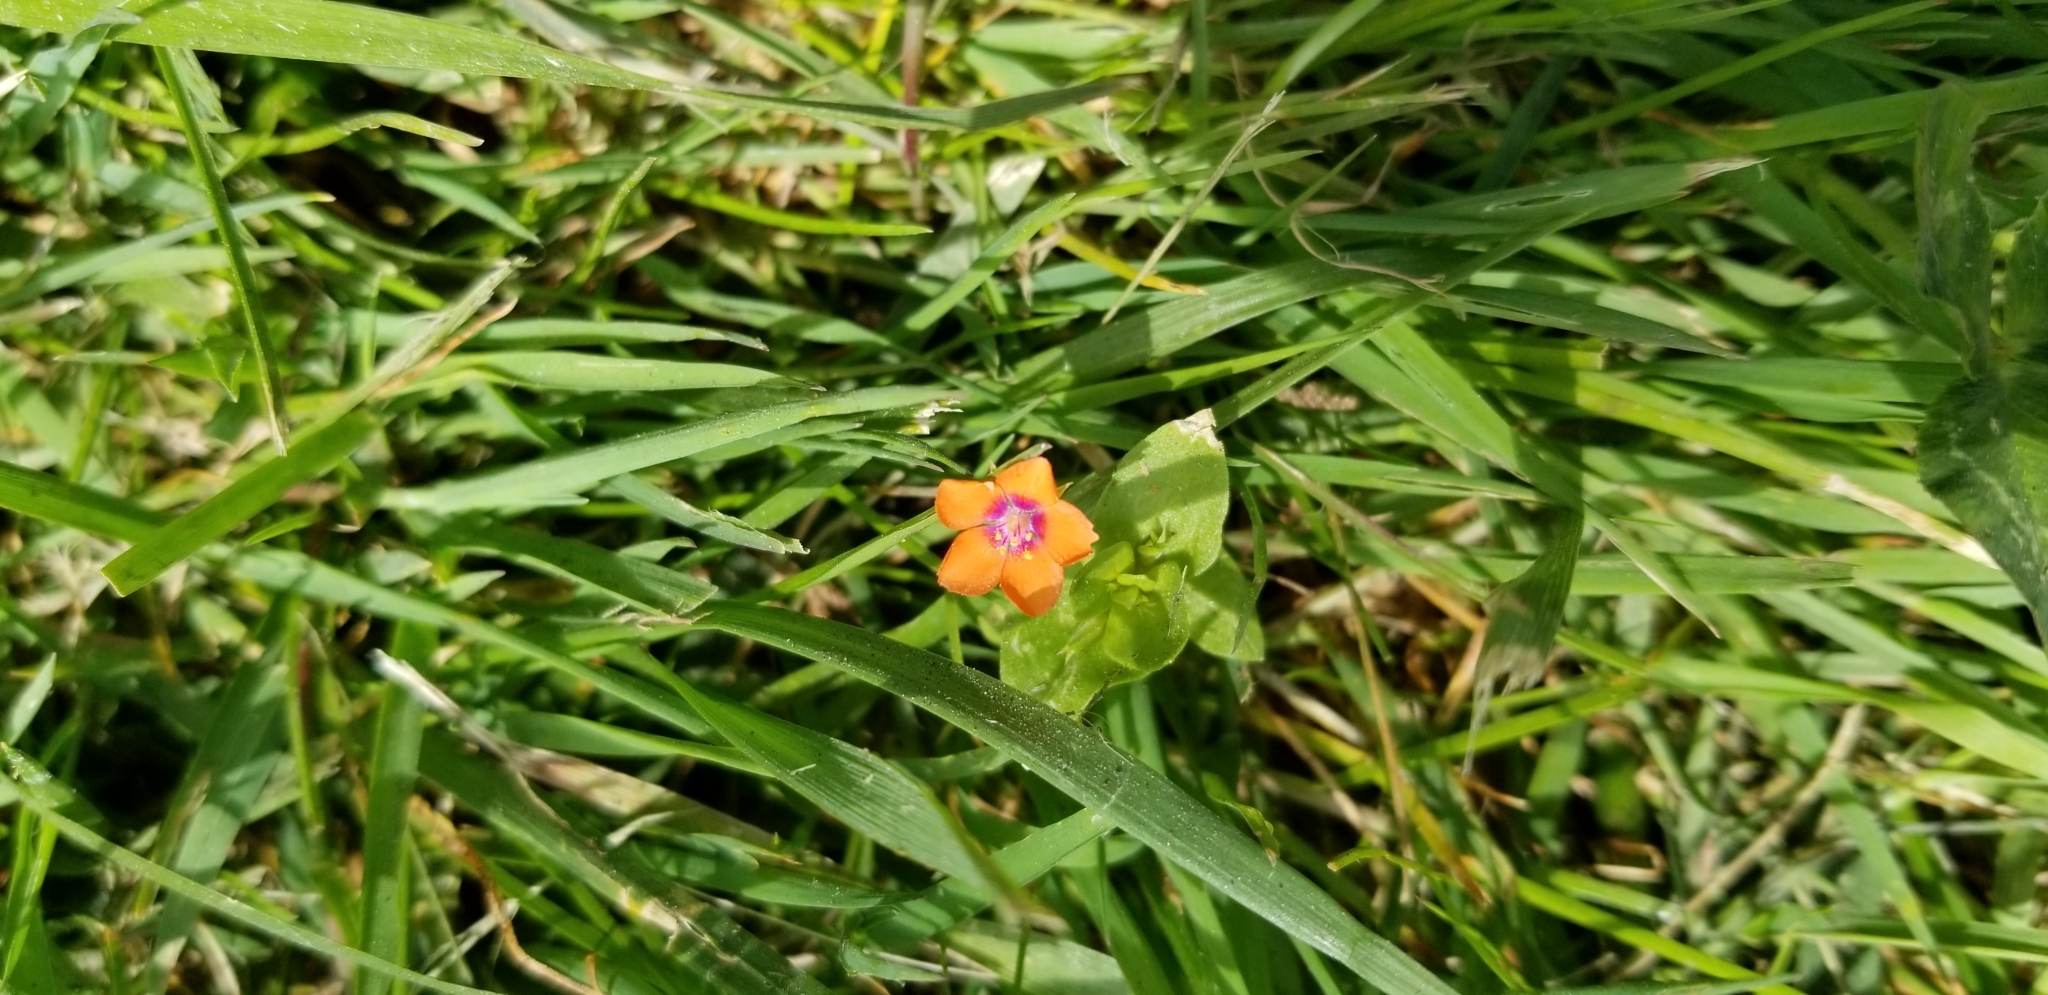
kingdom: Plantae
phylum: Tracheophyta
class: Magnoliopsida
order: Ericales
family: Primulaceae
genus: Lysimachia
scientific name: Lysimachia arvensis
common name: Scarlet pimpernel
